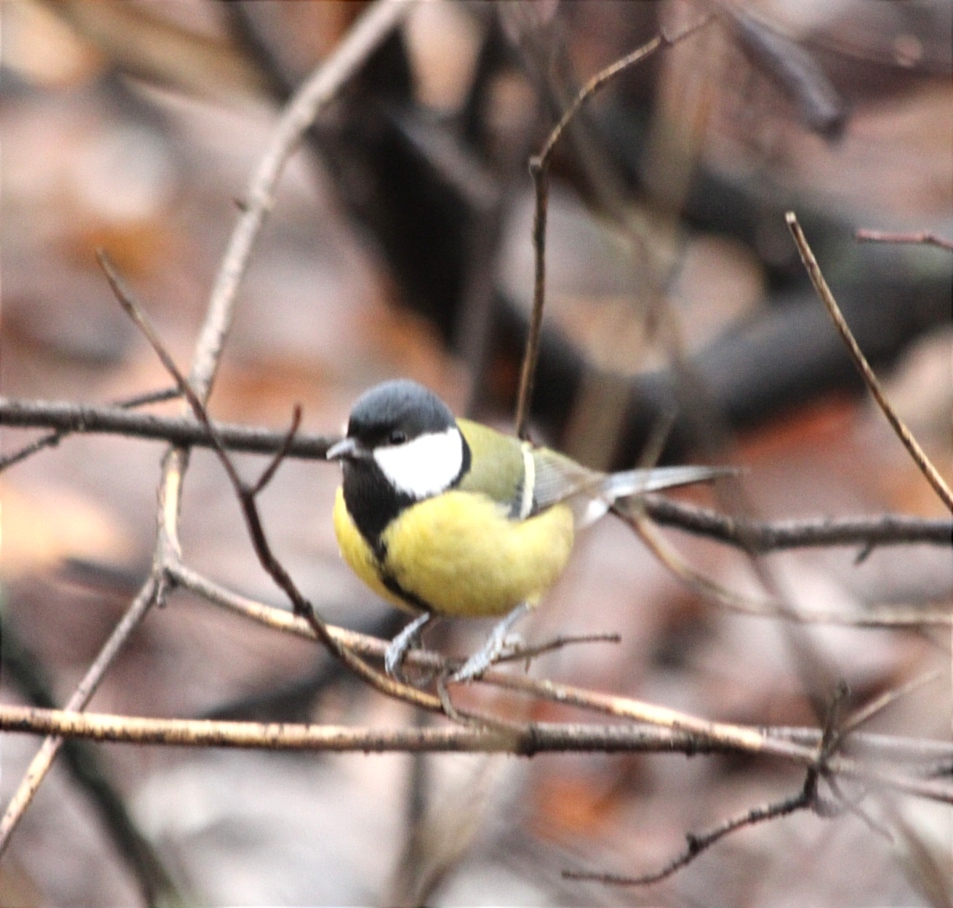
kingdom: Animalia
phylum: Chordata
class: Aves
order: Passeriformes
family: Paridae
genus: Parus
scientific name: Parus major
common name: Great tit
